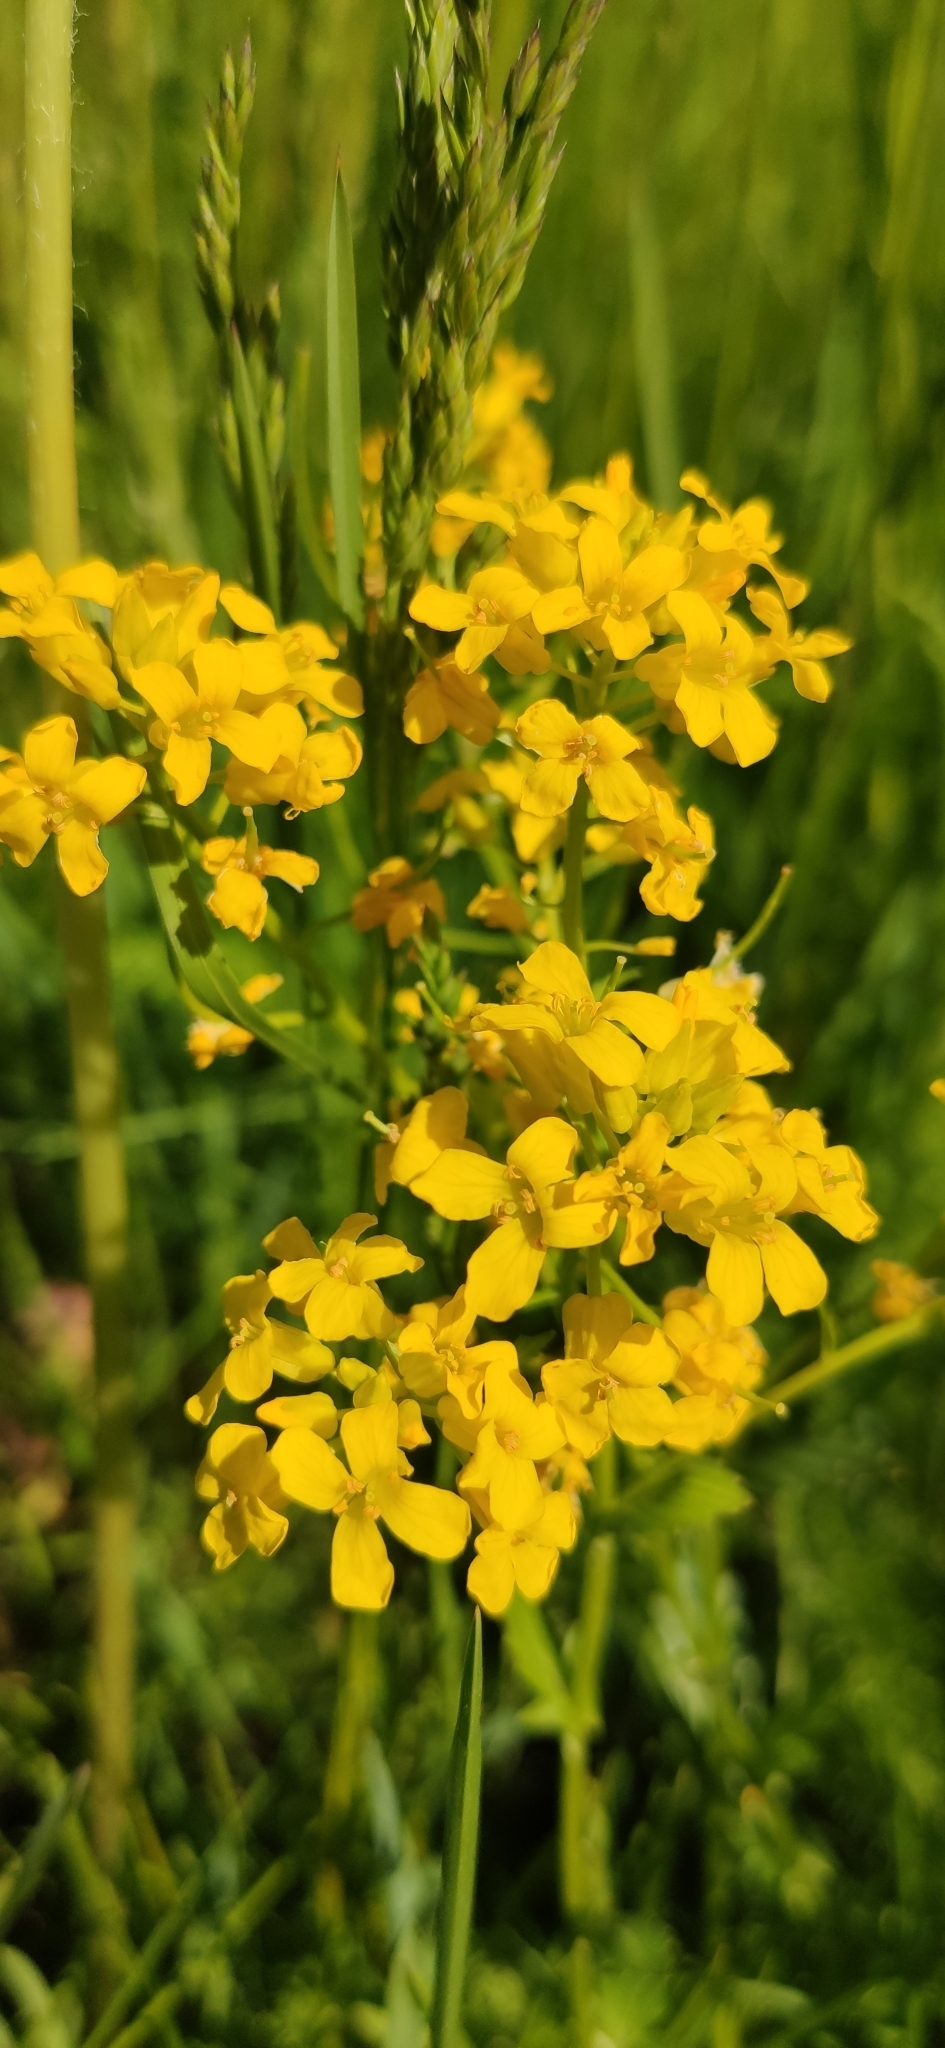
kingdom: Plantae
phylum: Tracheophyta
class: Magnoliopsida
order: Brassicales
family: Brassicaceae
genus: Barbarea
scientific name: Barbarea vulgaris
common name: Cressy-greens
